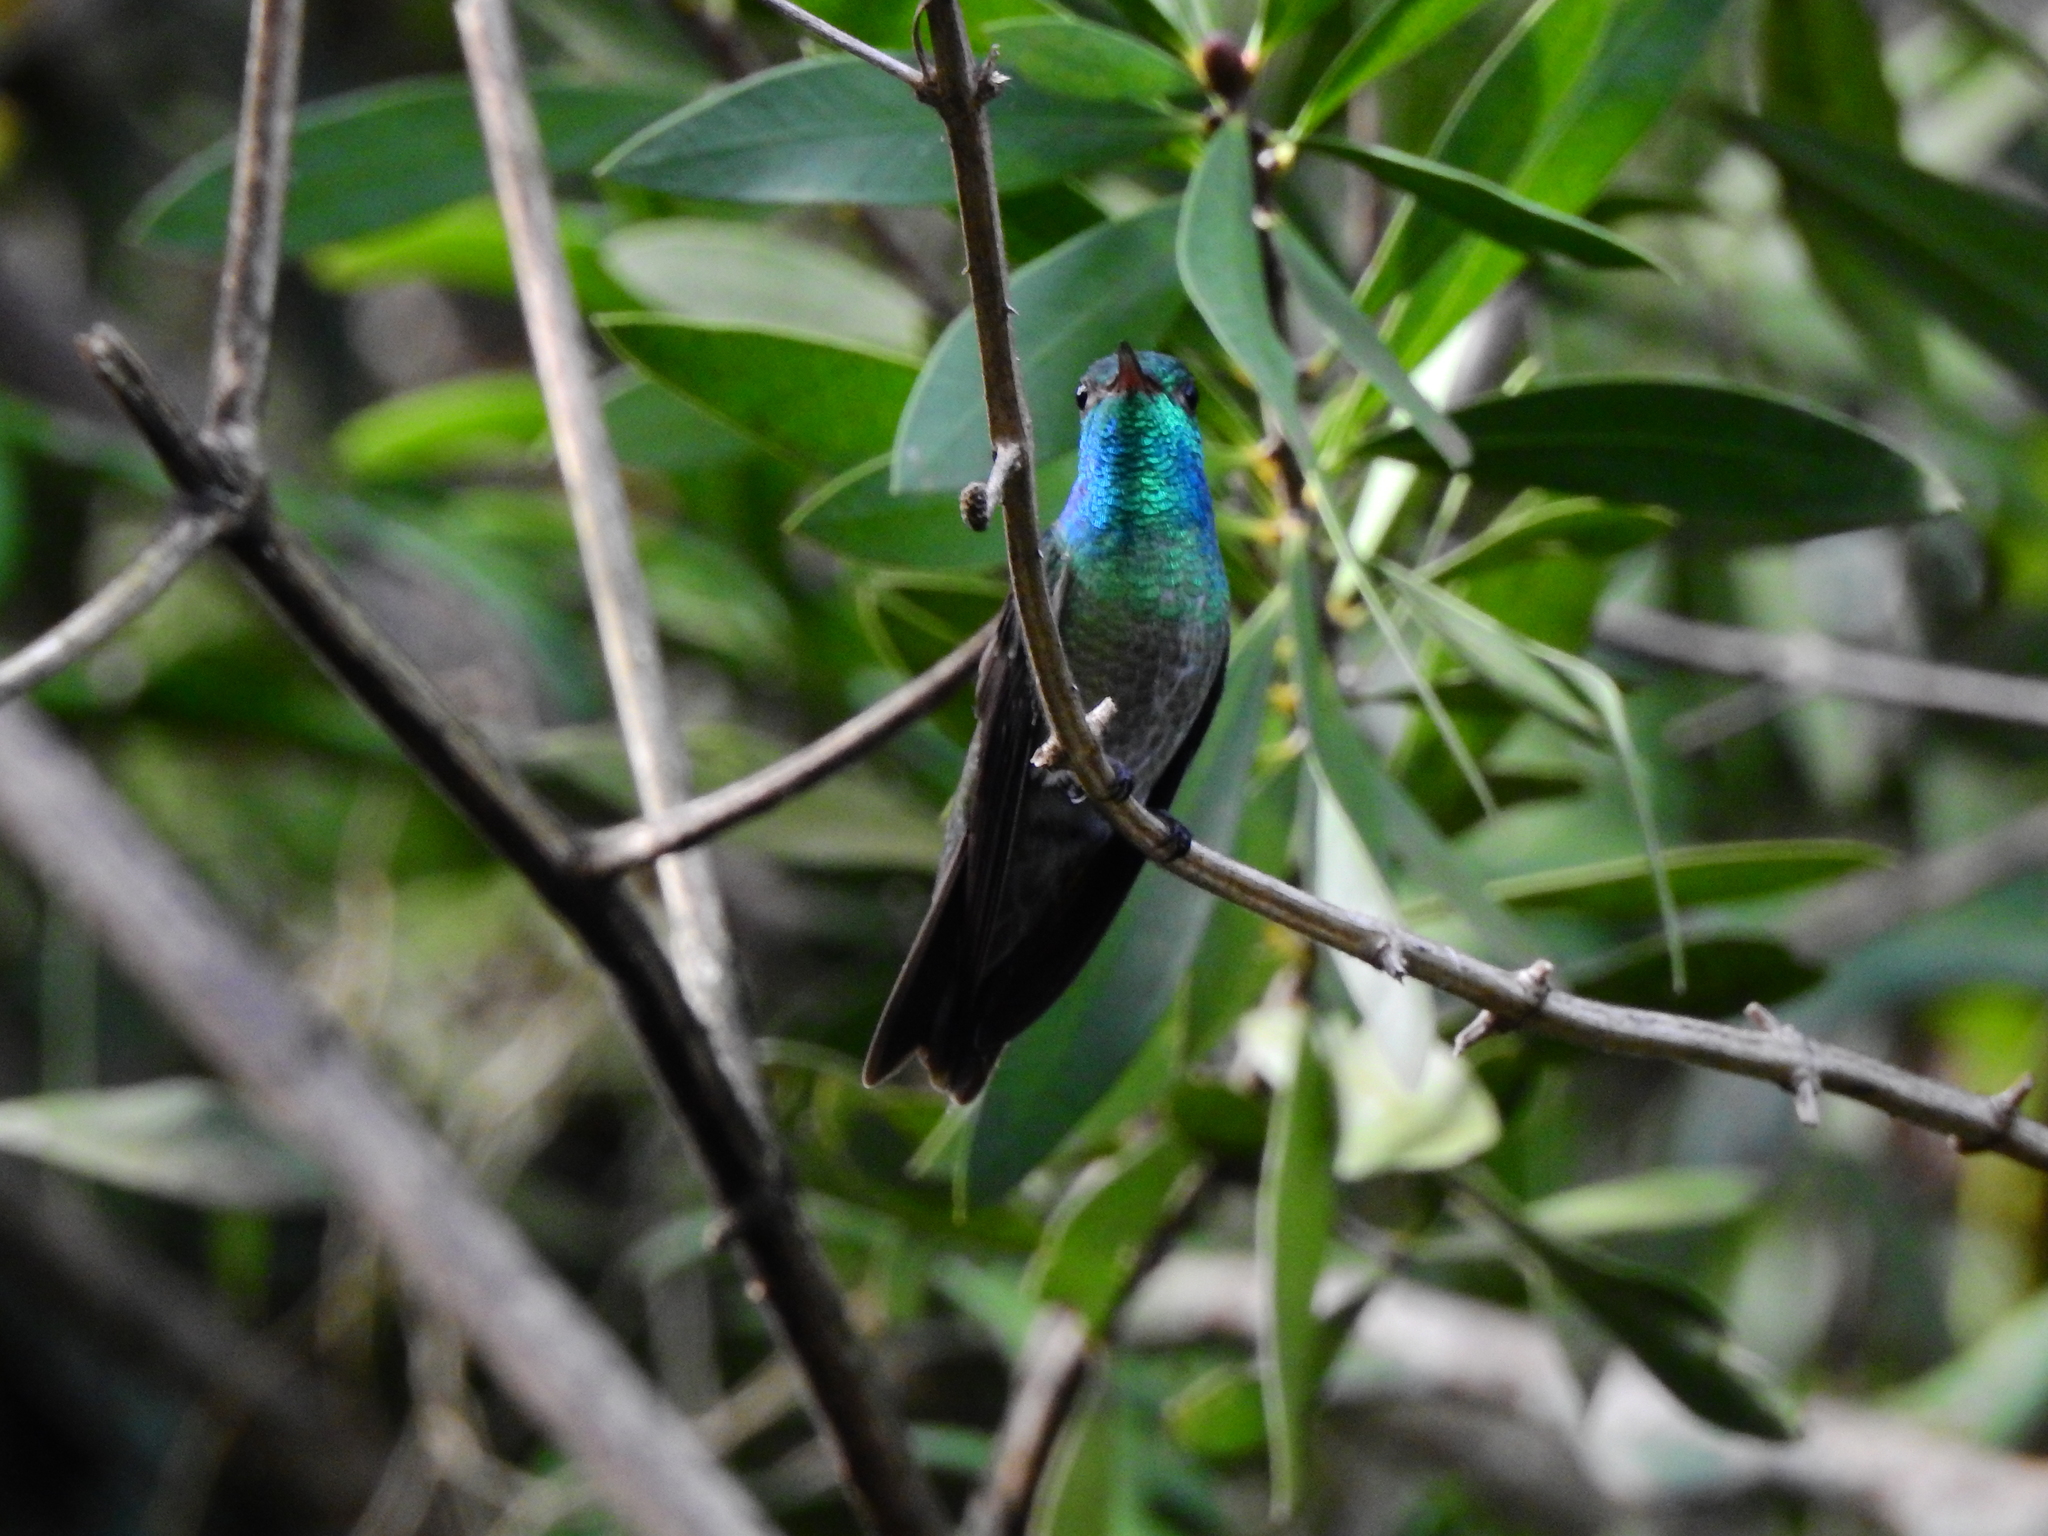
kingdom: Animalia
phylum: Chordata
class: Aves
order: Apodiformes
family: Trochilidae
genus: Chrysuronia
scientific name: Chrysuronia versicolor
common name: Versicolored emerald
